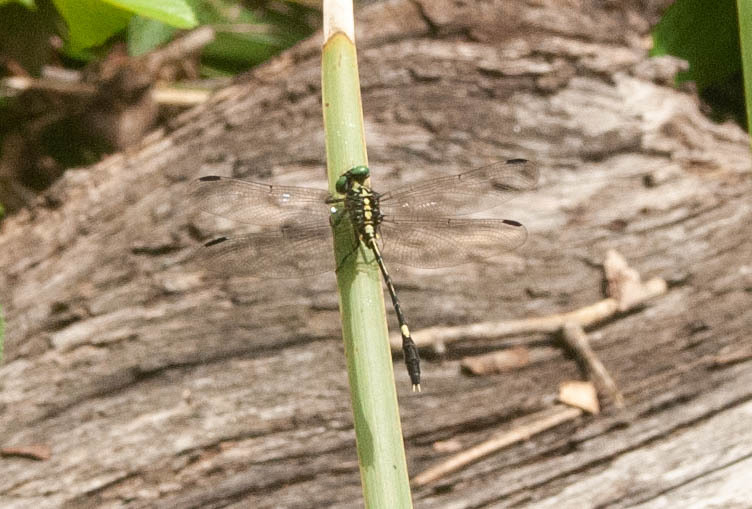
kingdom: Animalia
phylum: Arthropoda
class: Insecta
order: Odonata
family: Gomphidae
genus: Austrogomphus
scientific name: Austrogomphus amphiclitus
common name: Pale hunter
